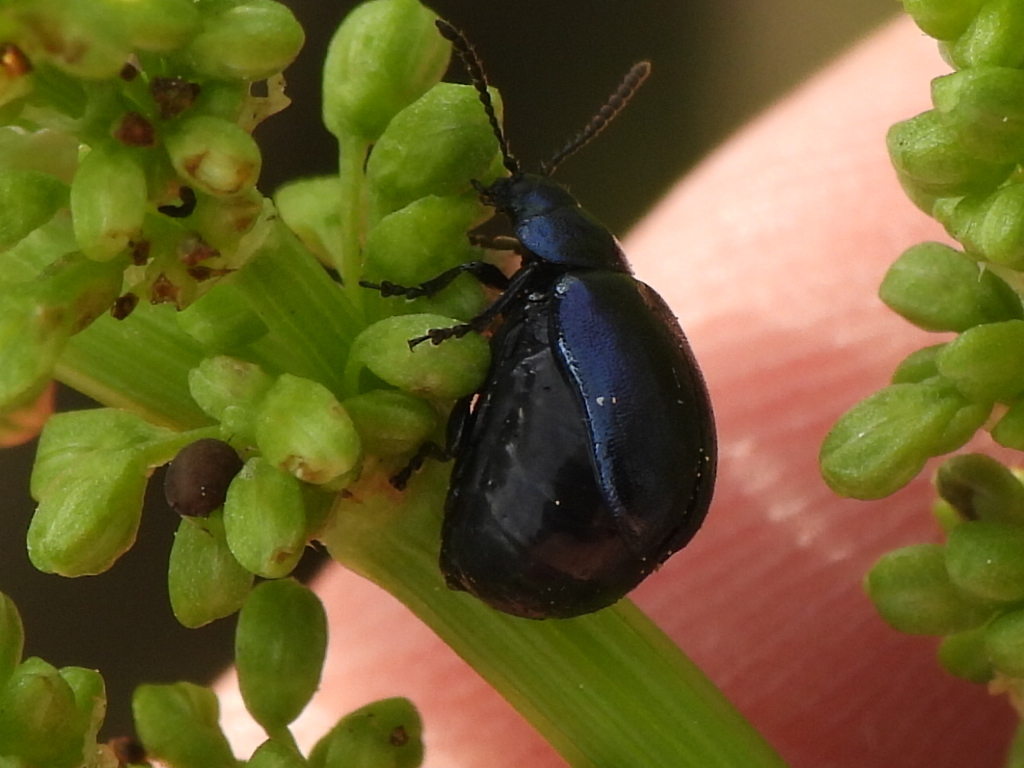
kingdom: Animalia
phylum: Arthropoda
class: Insecta
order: Coleoptera
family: Chrysomelidae
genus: Gastrophysa
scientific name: Gastrophysa cyanea
